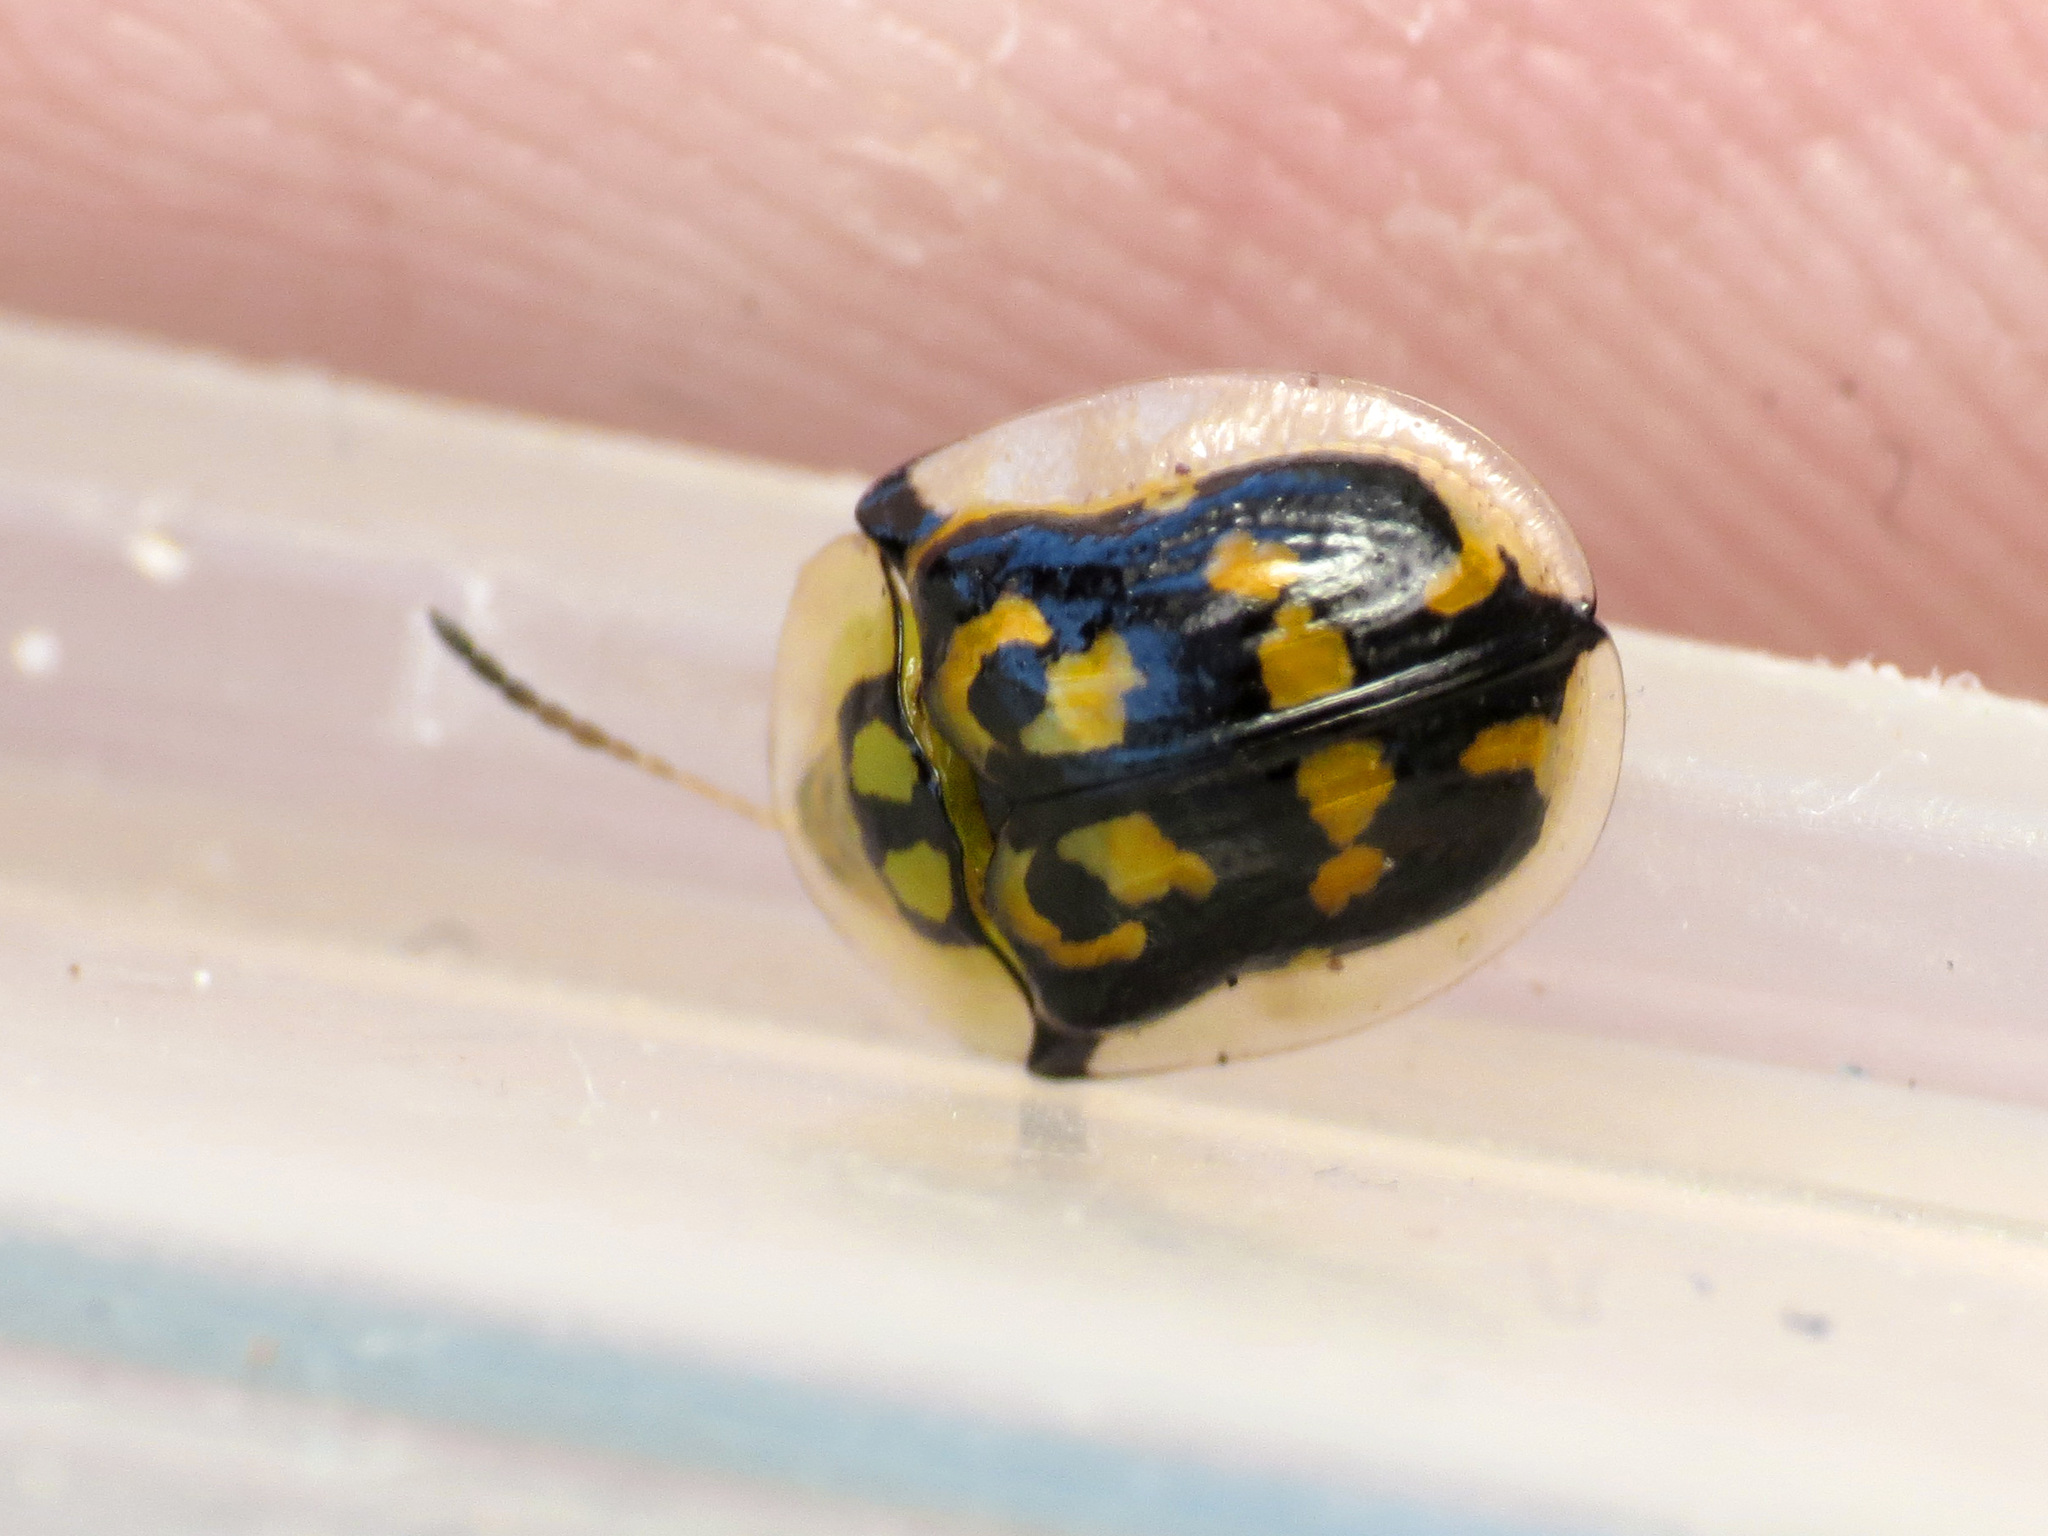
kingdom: Animalia
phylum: Arthropoda
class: Insecta
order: Coleoptera
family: Chrysomelidae
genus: Deloyala
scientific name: Deloyala lecontei
